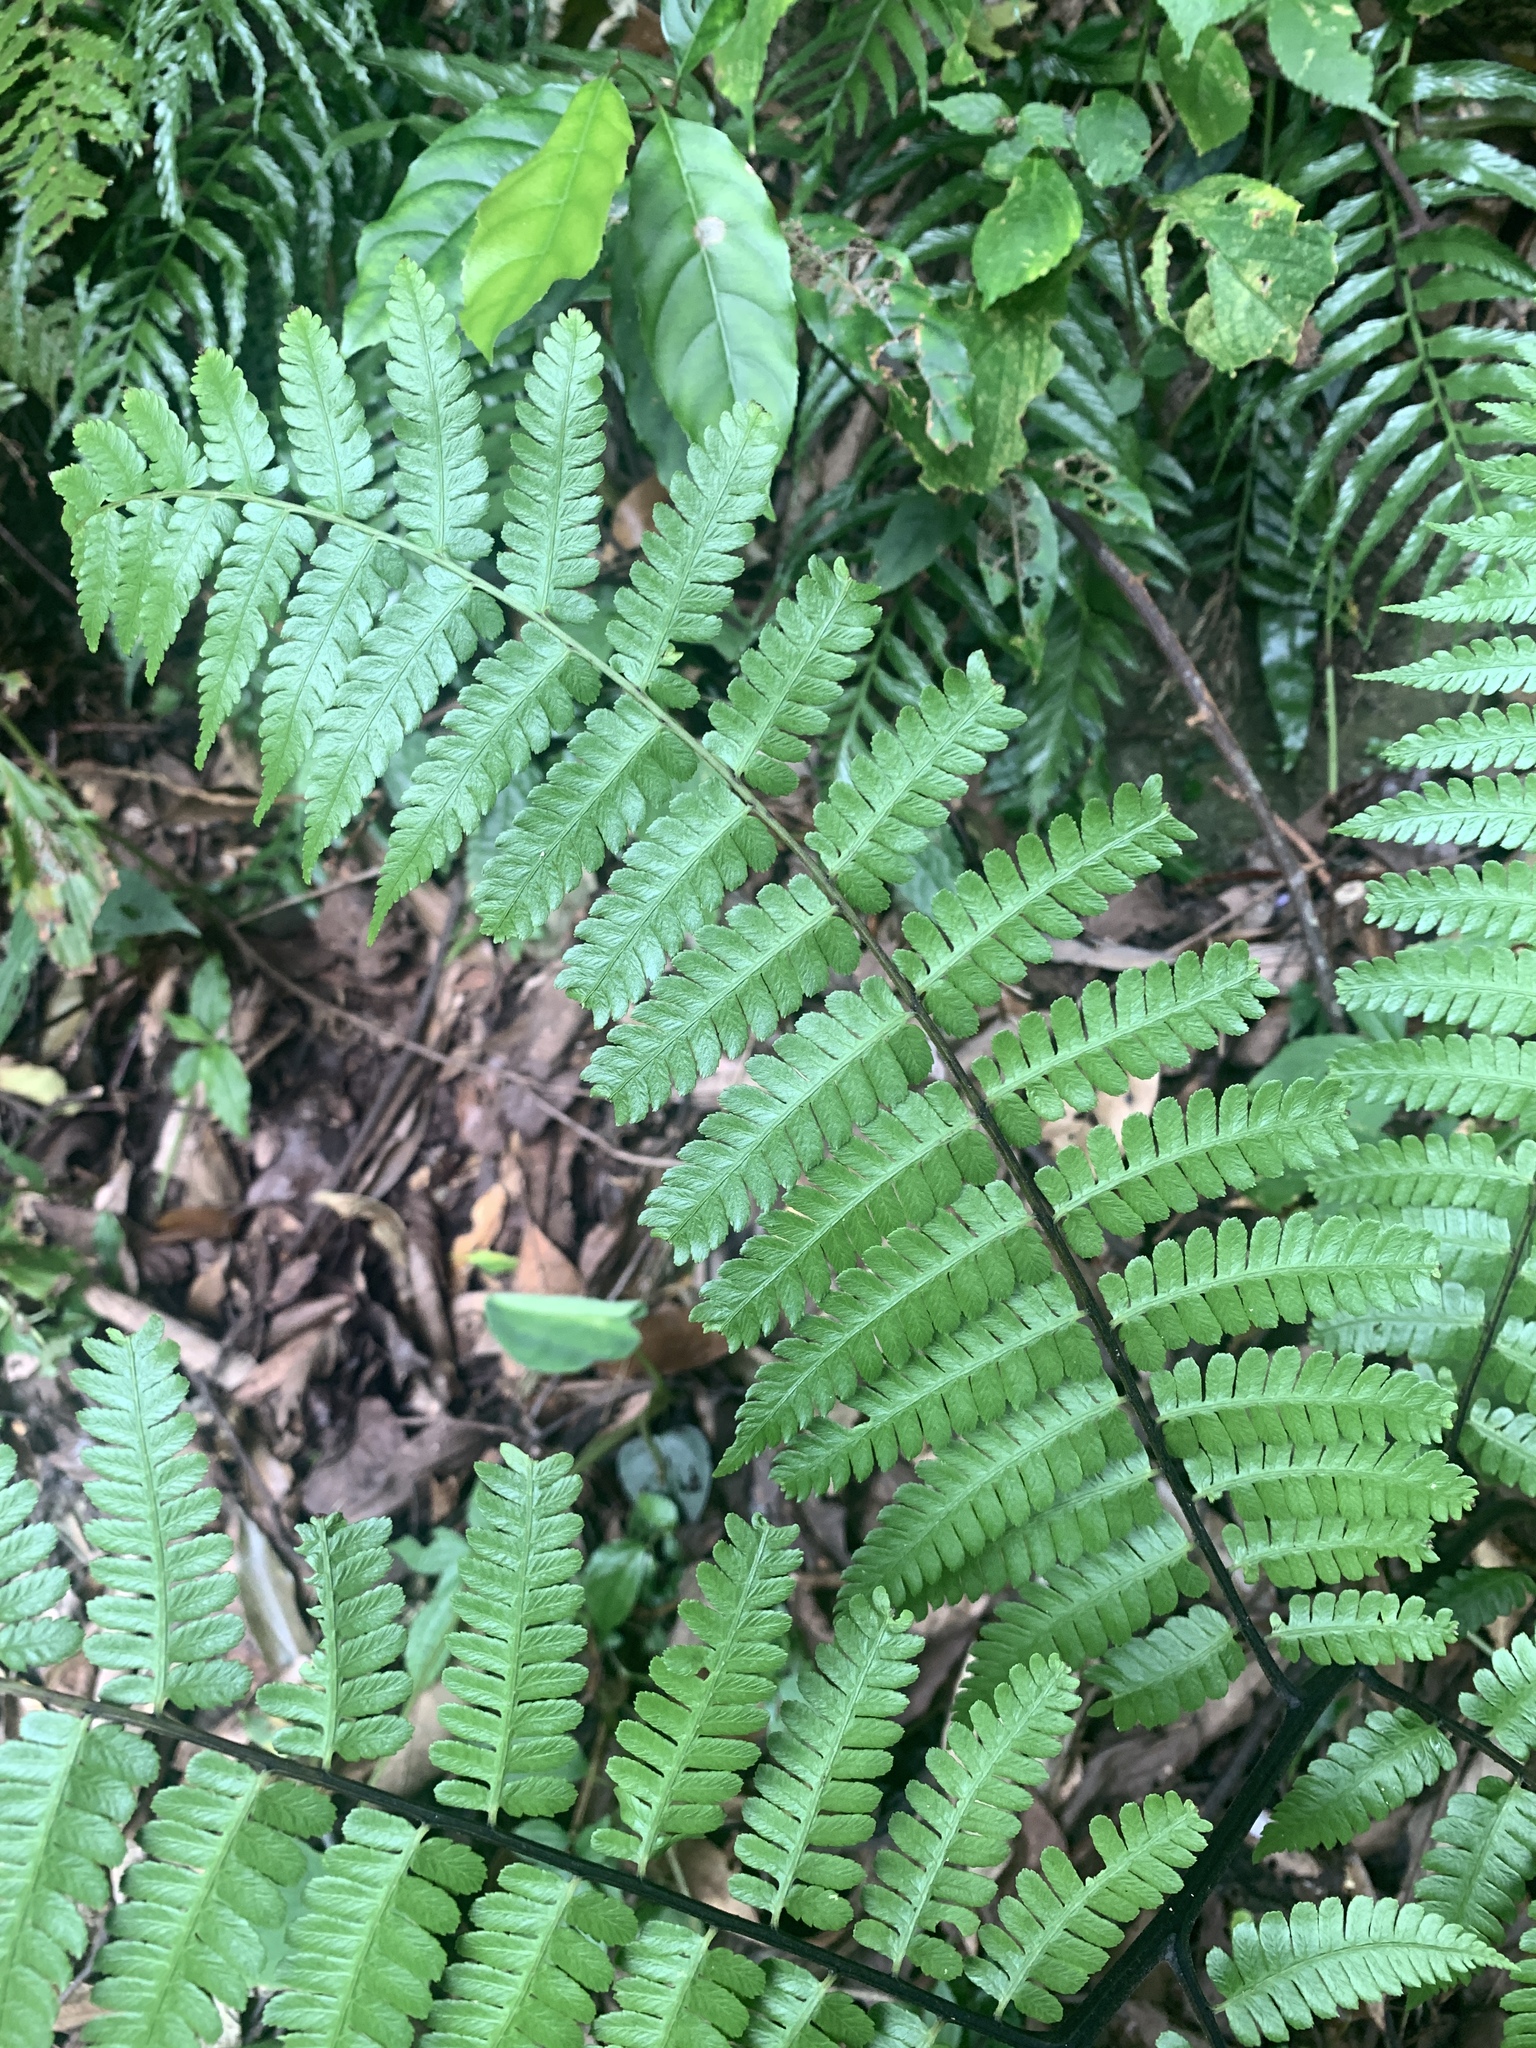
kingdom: Plantae
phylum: Tracheophyta
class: Polypodiopsida
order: Polypodiales
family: Athyriaceae
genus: Diplazium
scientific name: Diplazium laxifrons
